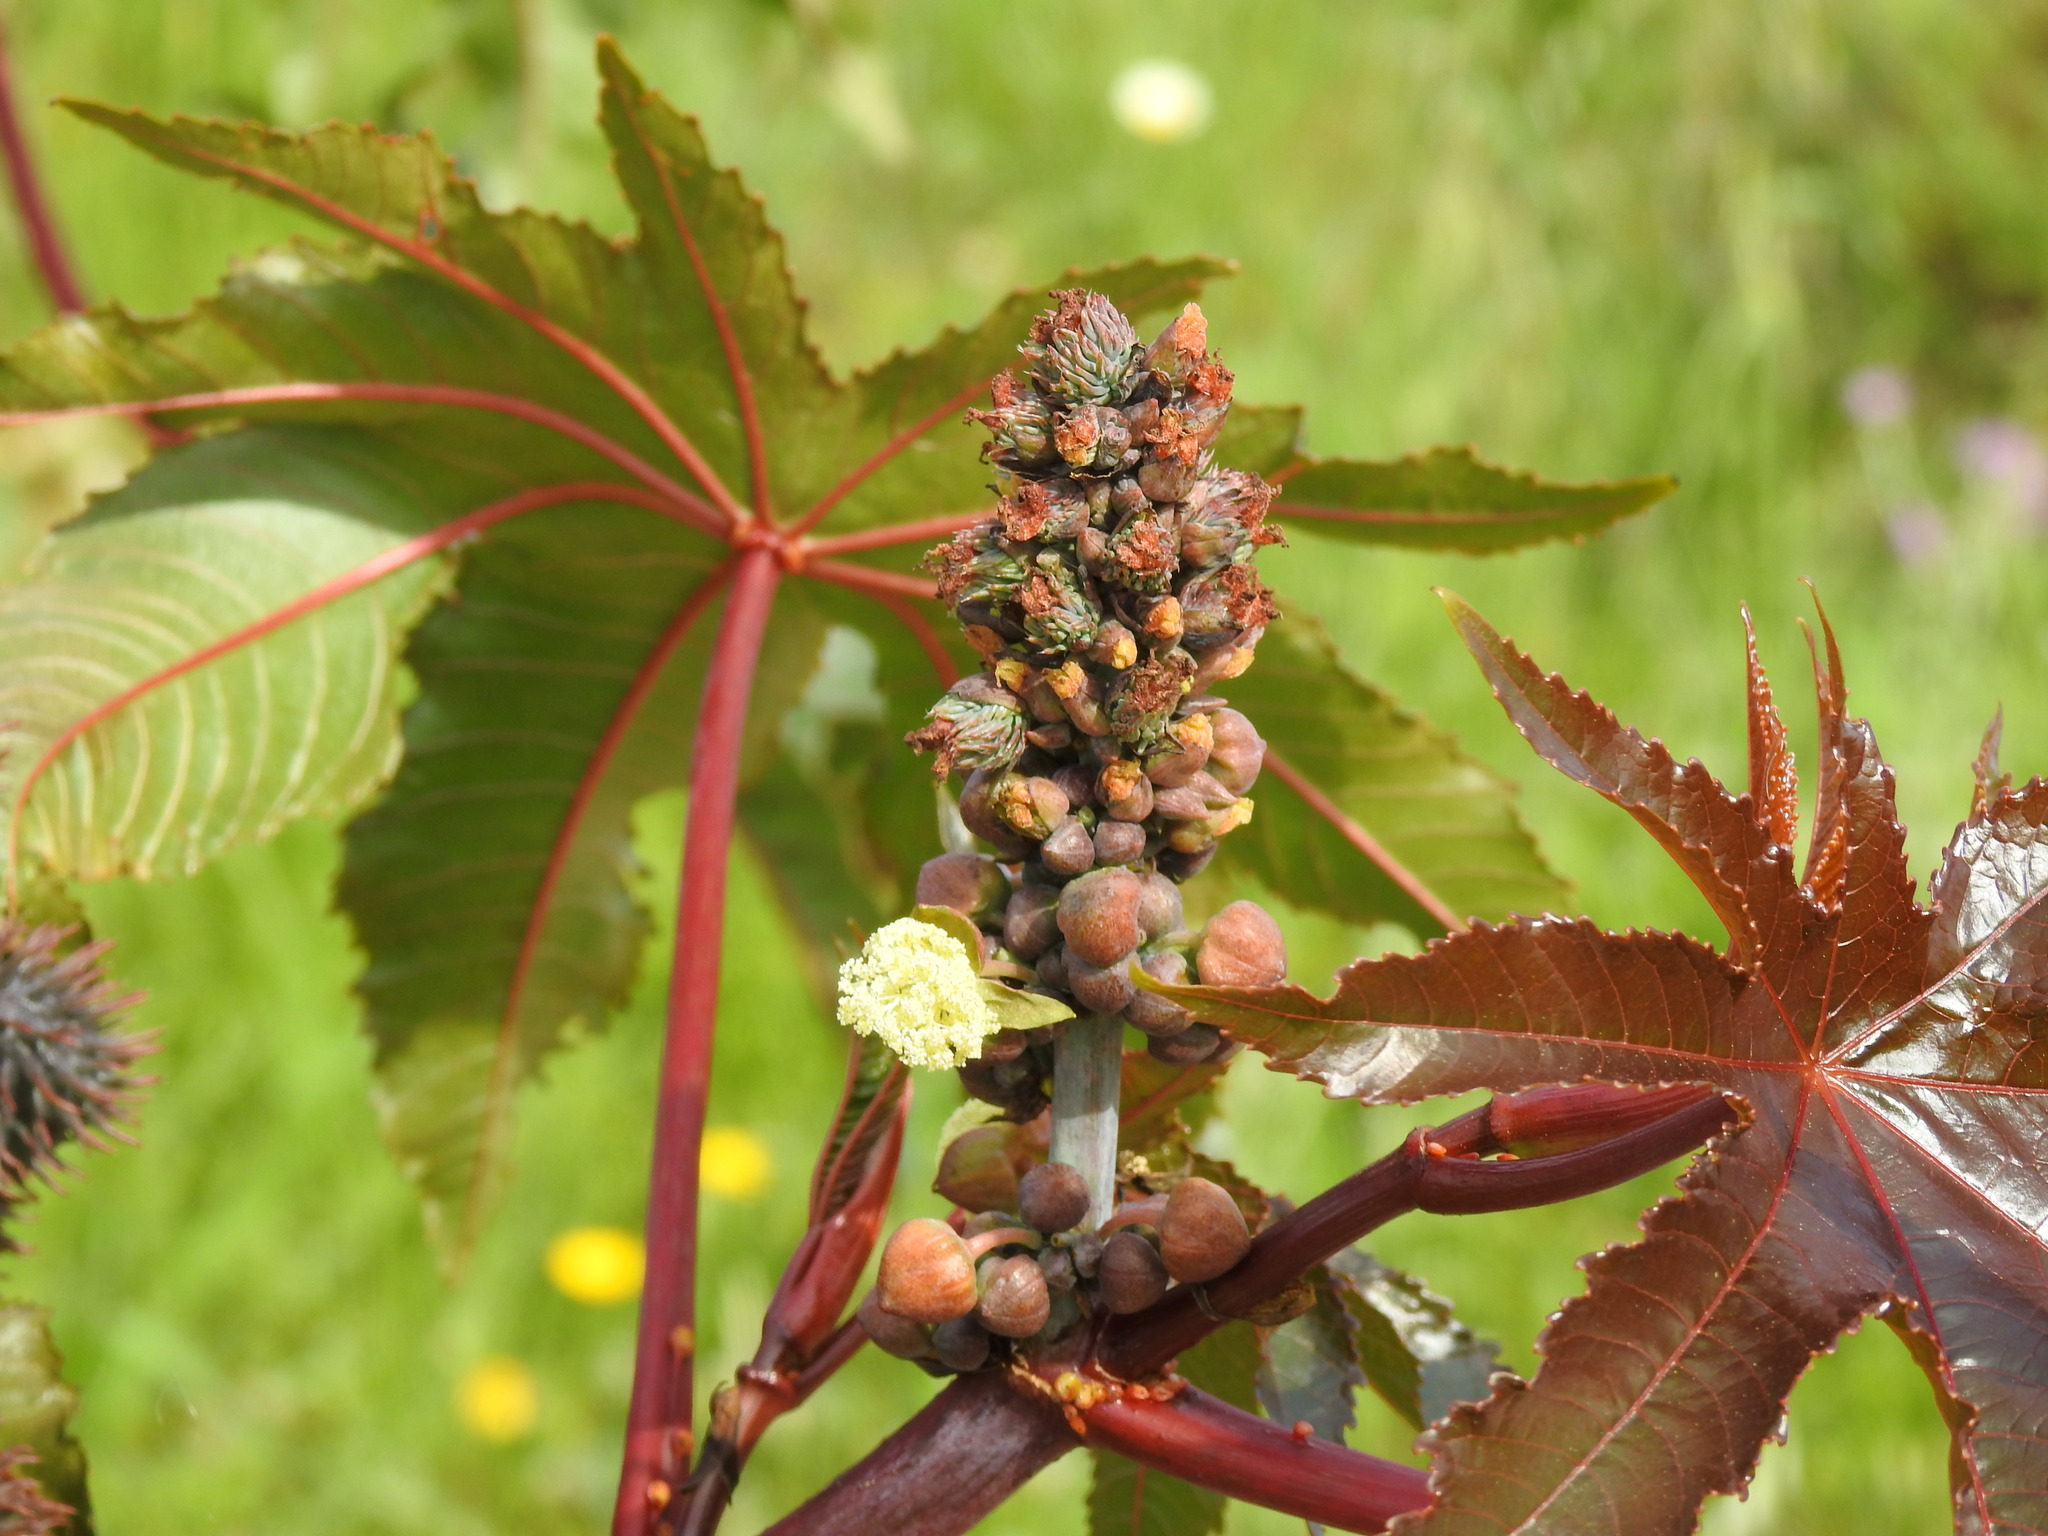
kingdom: Plantae
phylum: Tracheophyta
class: Magnoliopsida
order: Malpighiales
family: Euphorbiaceae
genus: Ricinus
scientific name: Ricinus communis
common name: Castor-oil-plant
